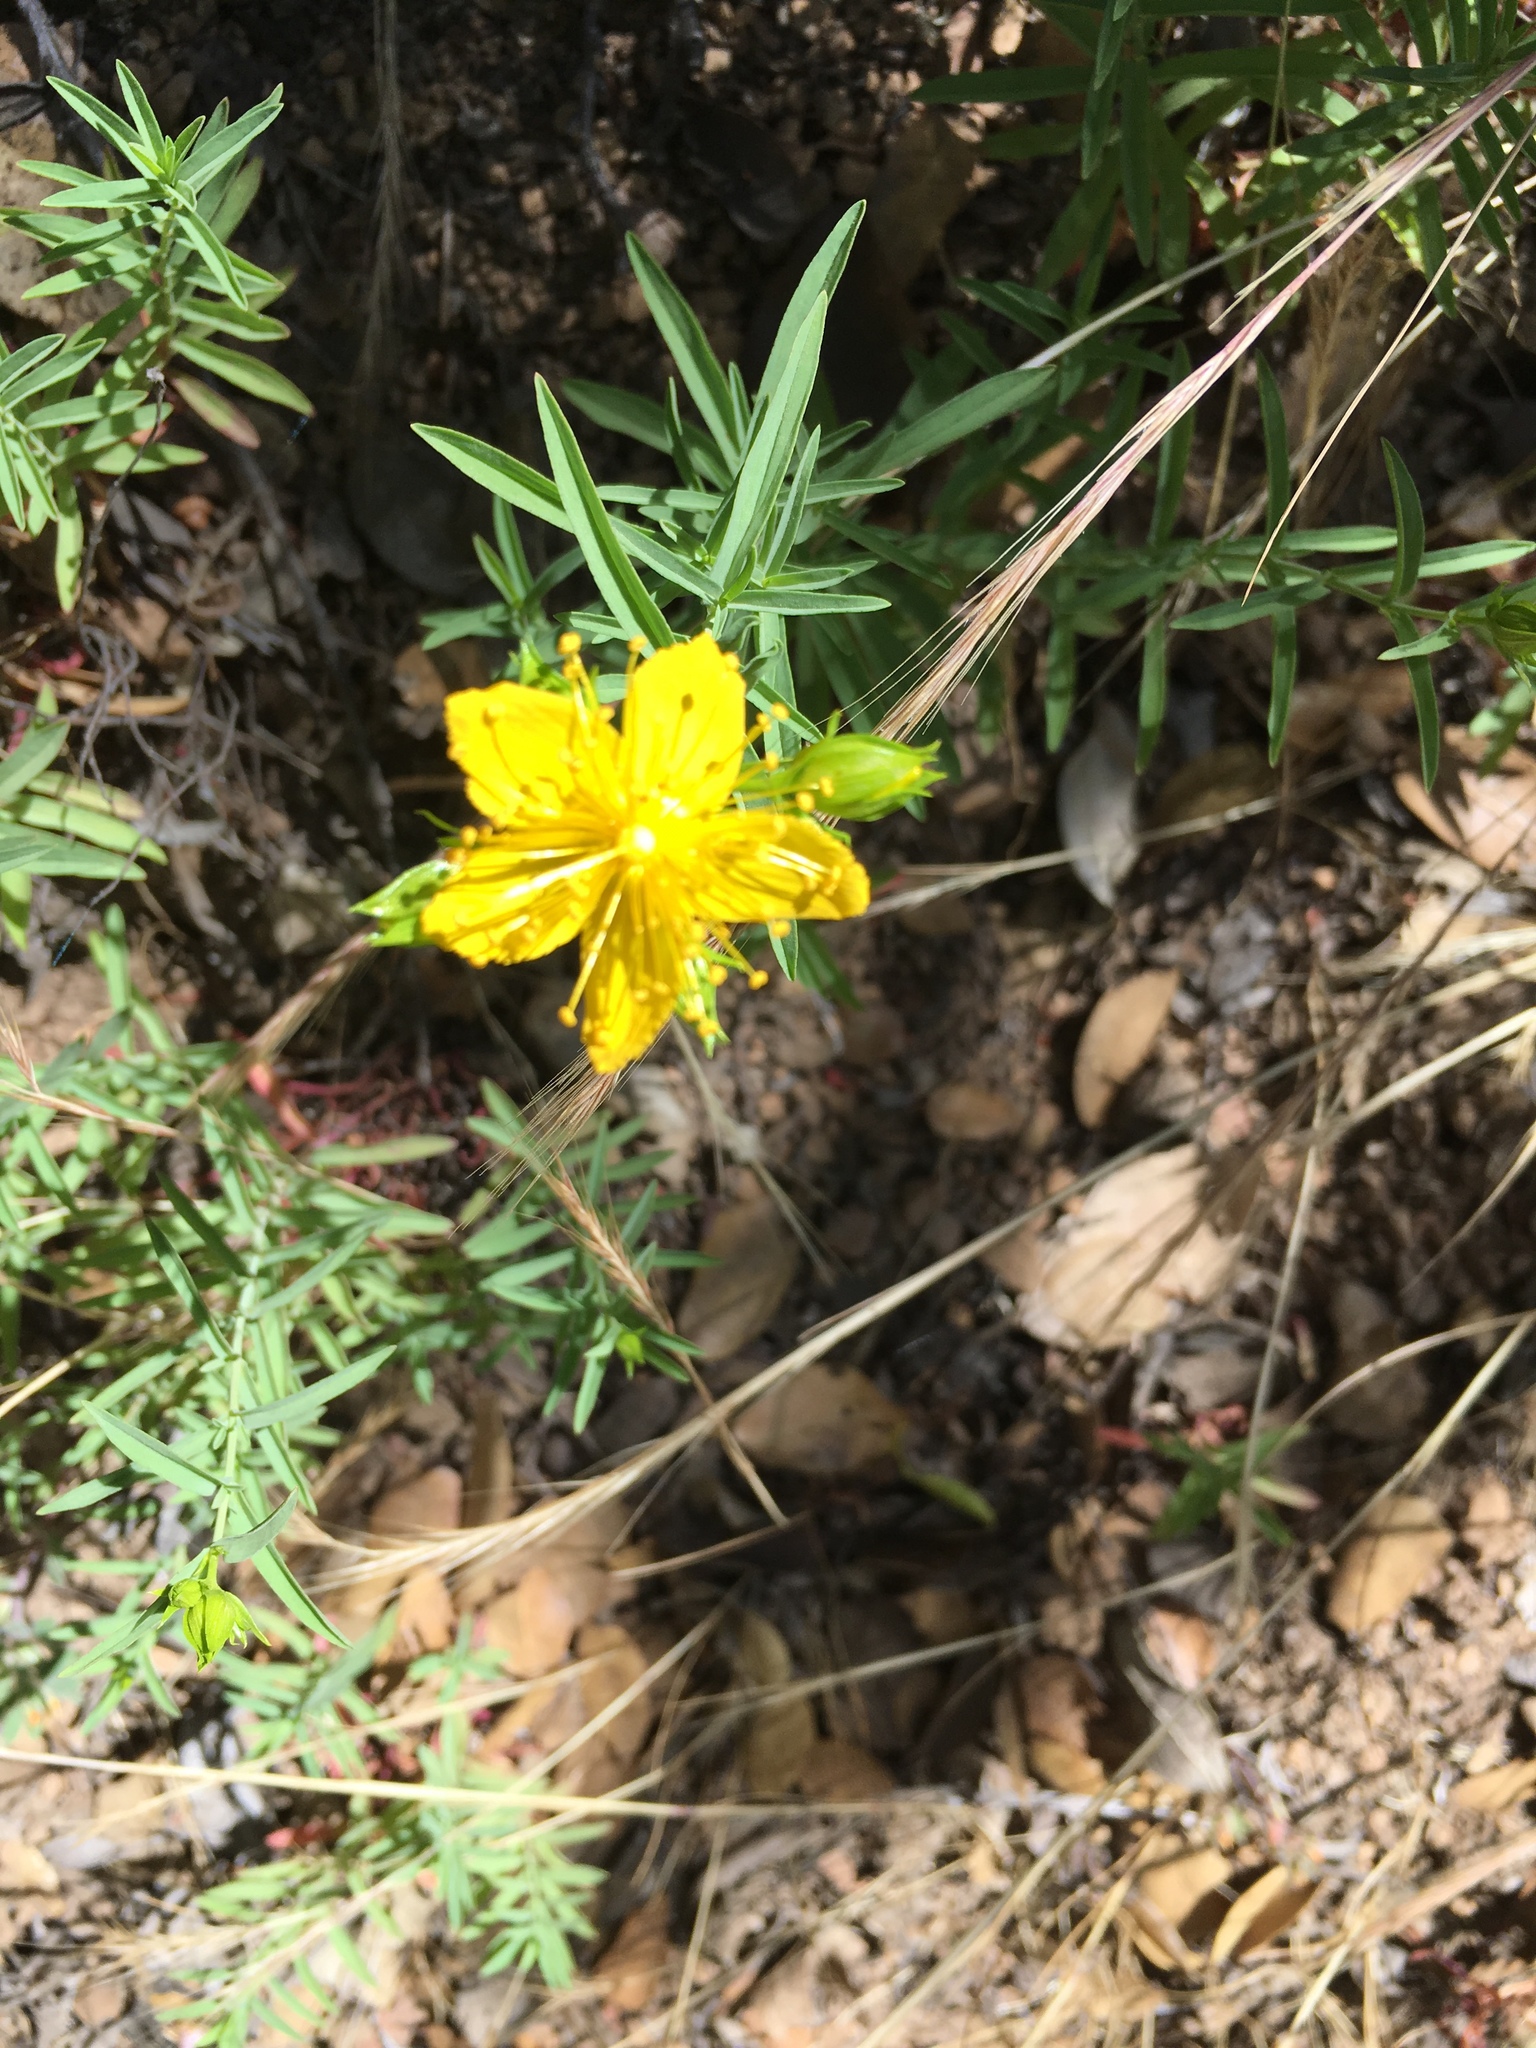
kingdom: Plantae
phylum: Tracheophyta
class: Magnoliopsida
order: Malpighiales
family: Hypericaceae
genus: Hypericum
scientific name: Hypericum concinnum
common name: Gold-wire
